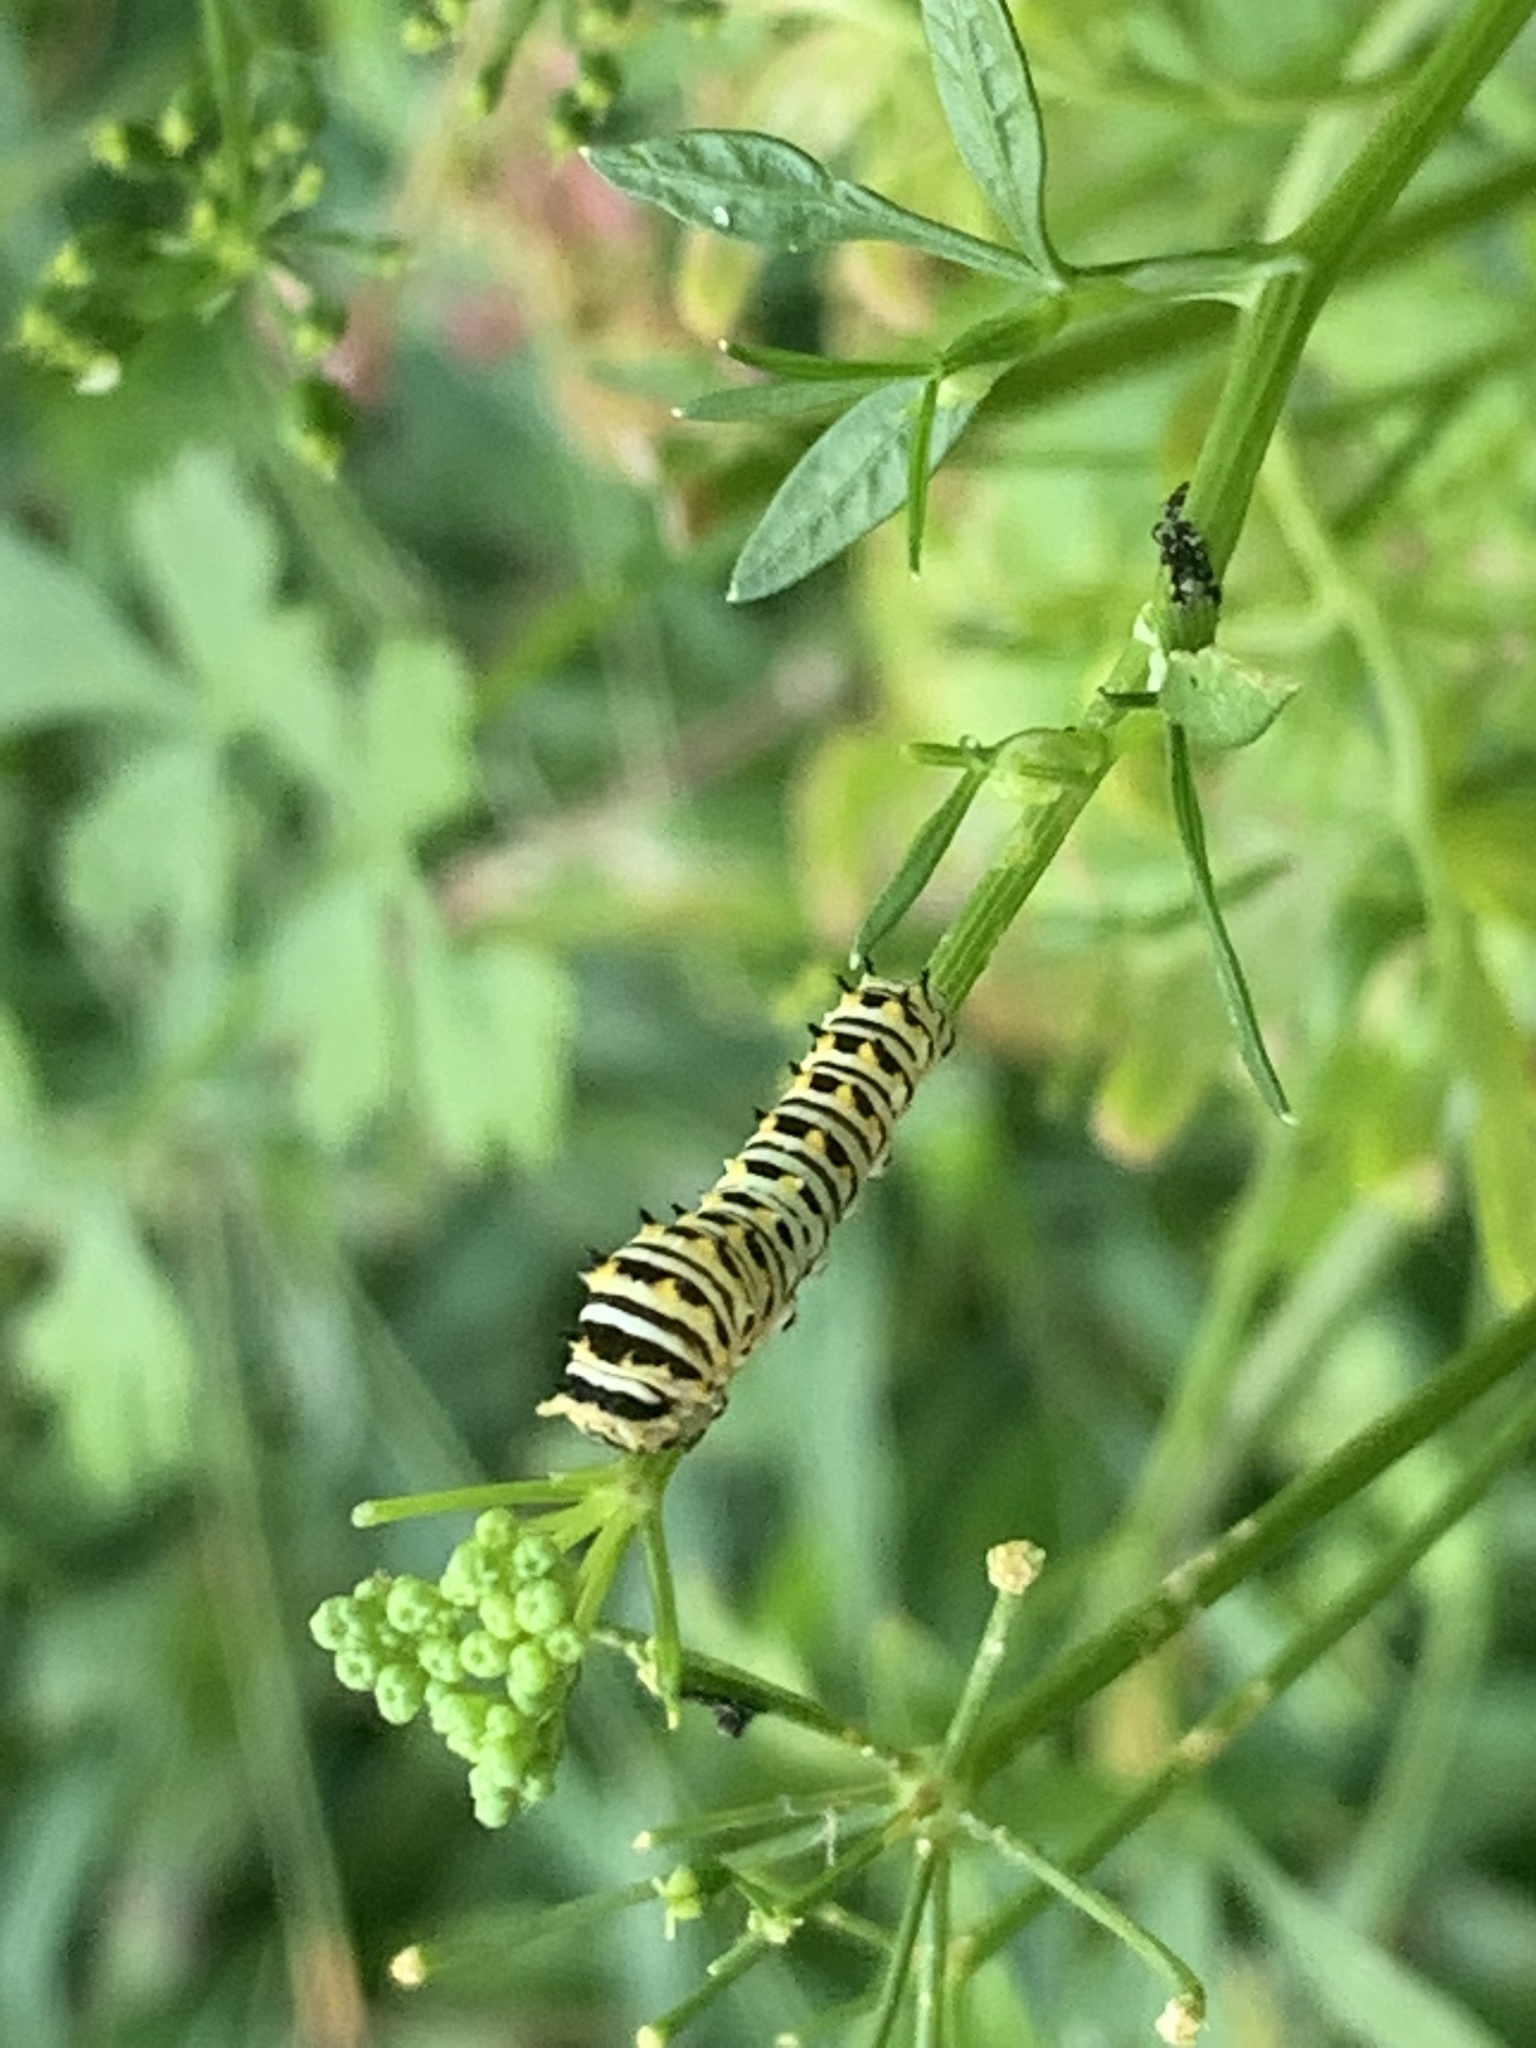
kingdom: Animalia
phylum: Arthropoda
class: Insecta
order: Lepidoptera
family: Papilionidae
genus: Papilio
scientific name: Papilio polyxenes
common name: Black swallowtail
